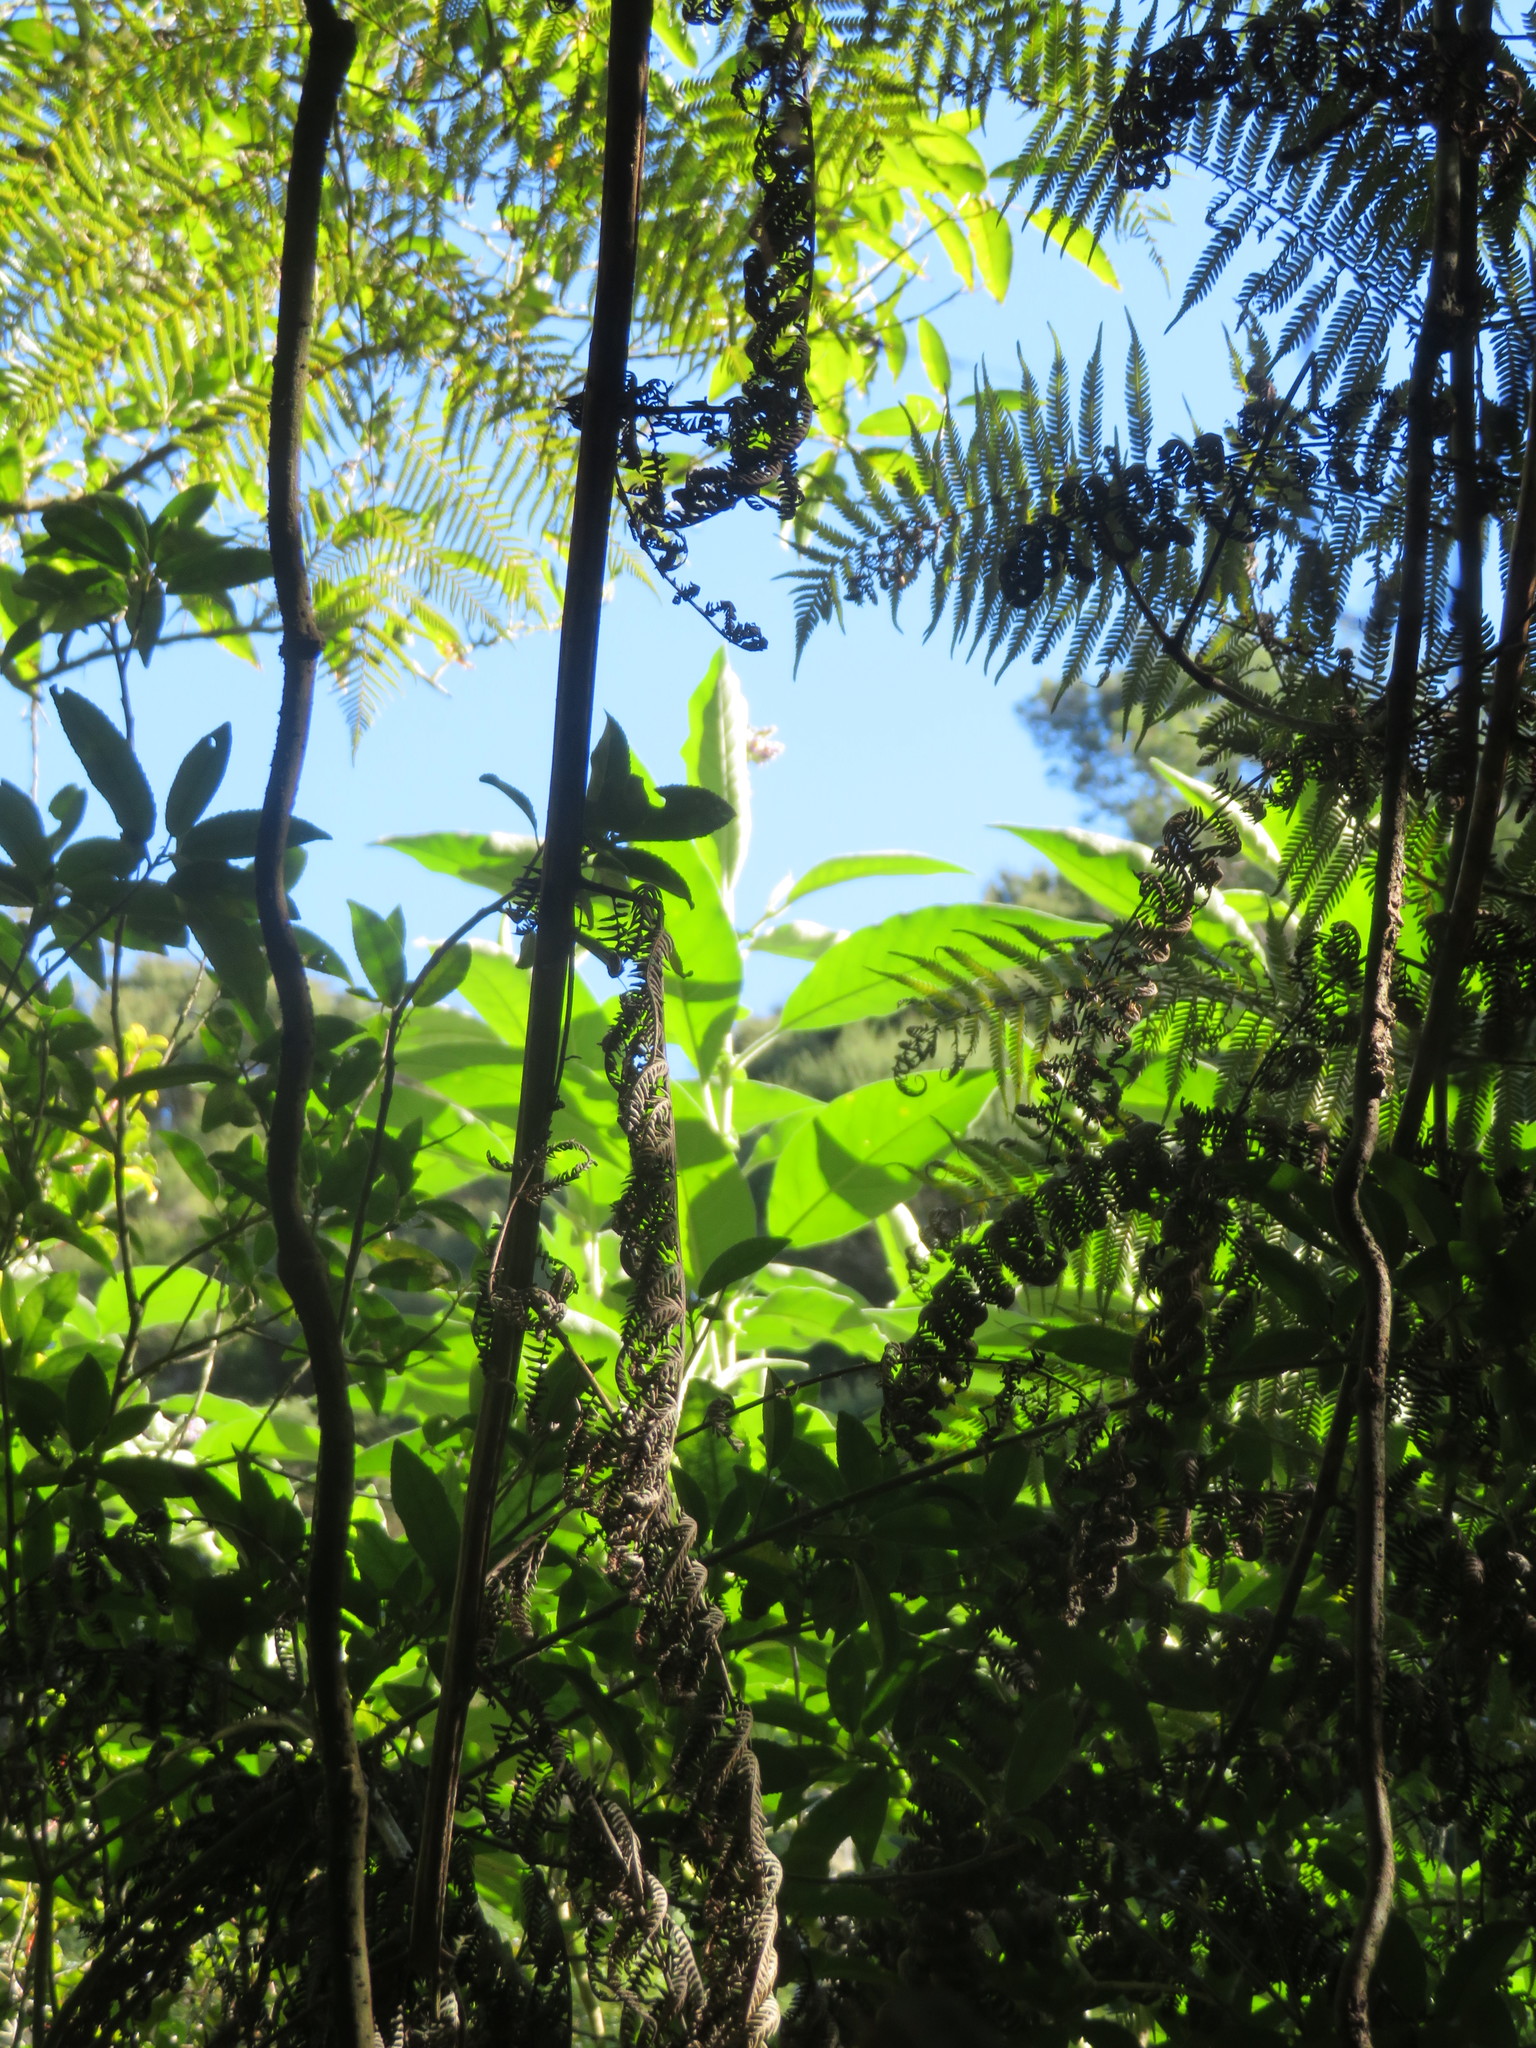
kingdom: Plantae
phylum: Tracheophyta
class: Magnoliopsida
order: Solanales
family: Solanaceae
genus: Solanum
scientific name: Solanum mauritianum
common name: Earleaf nightshade
